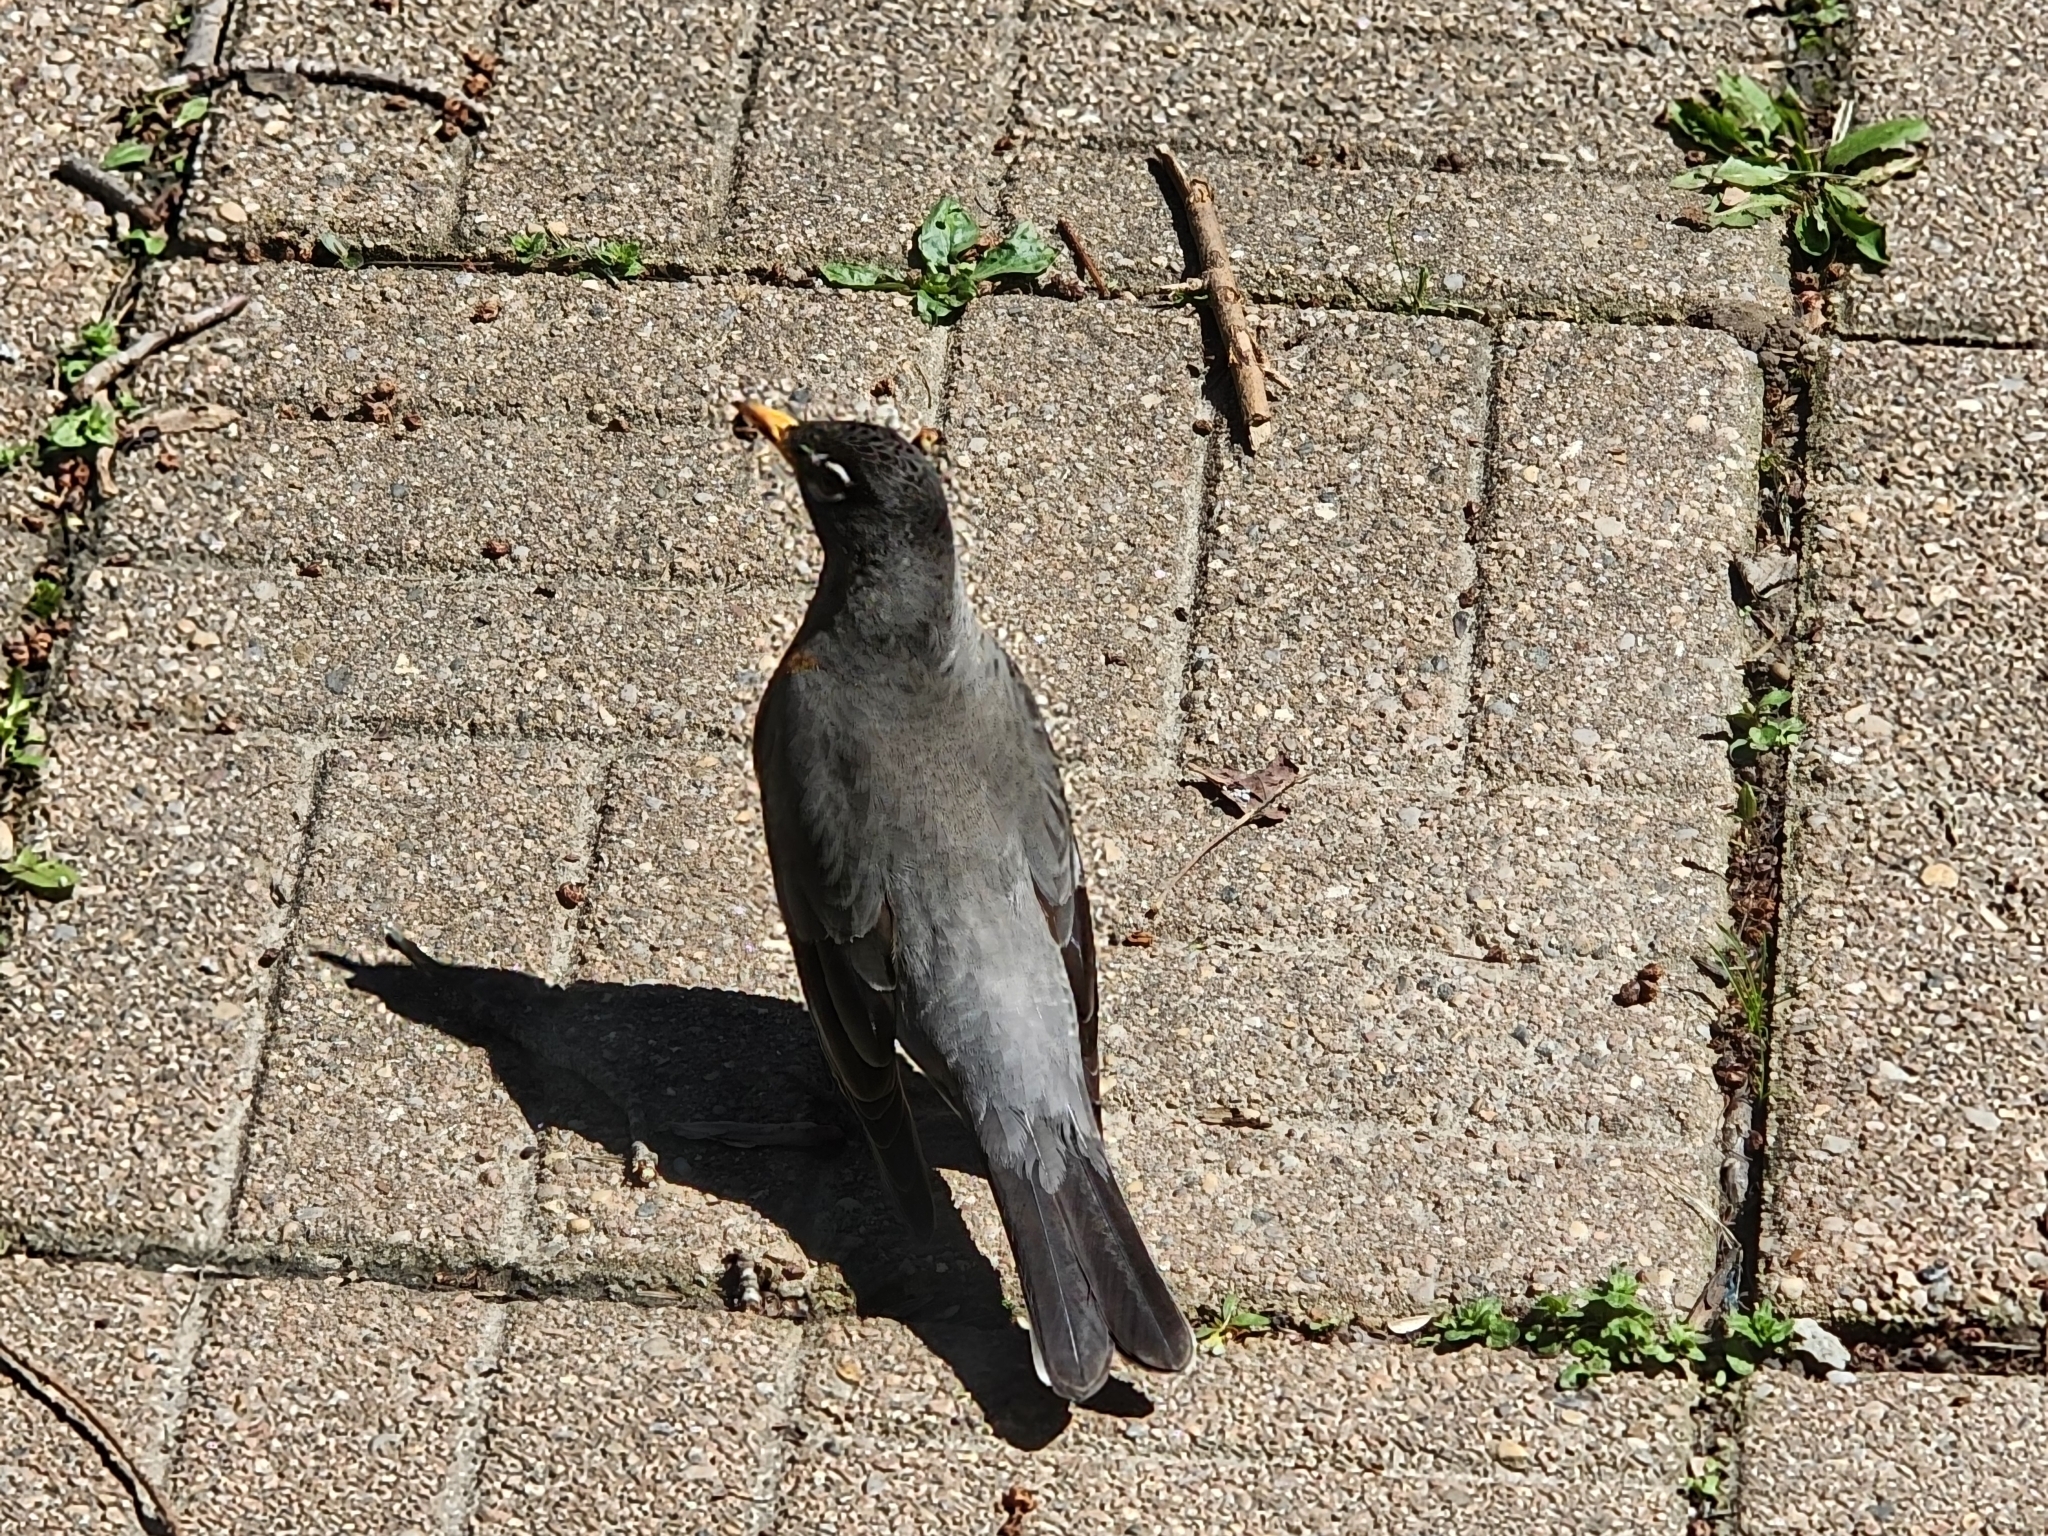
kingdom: Animalia
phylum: Chordata
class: Aves
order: Passeriformes
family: Turdidae
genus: Turdus
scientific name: Turdus migratorius
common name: American robin
